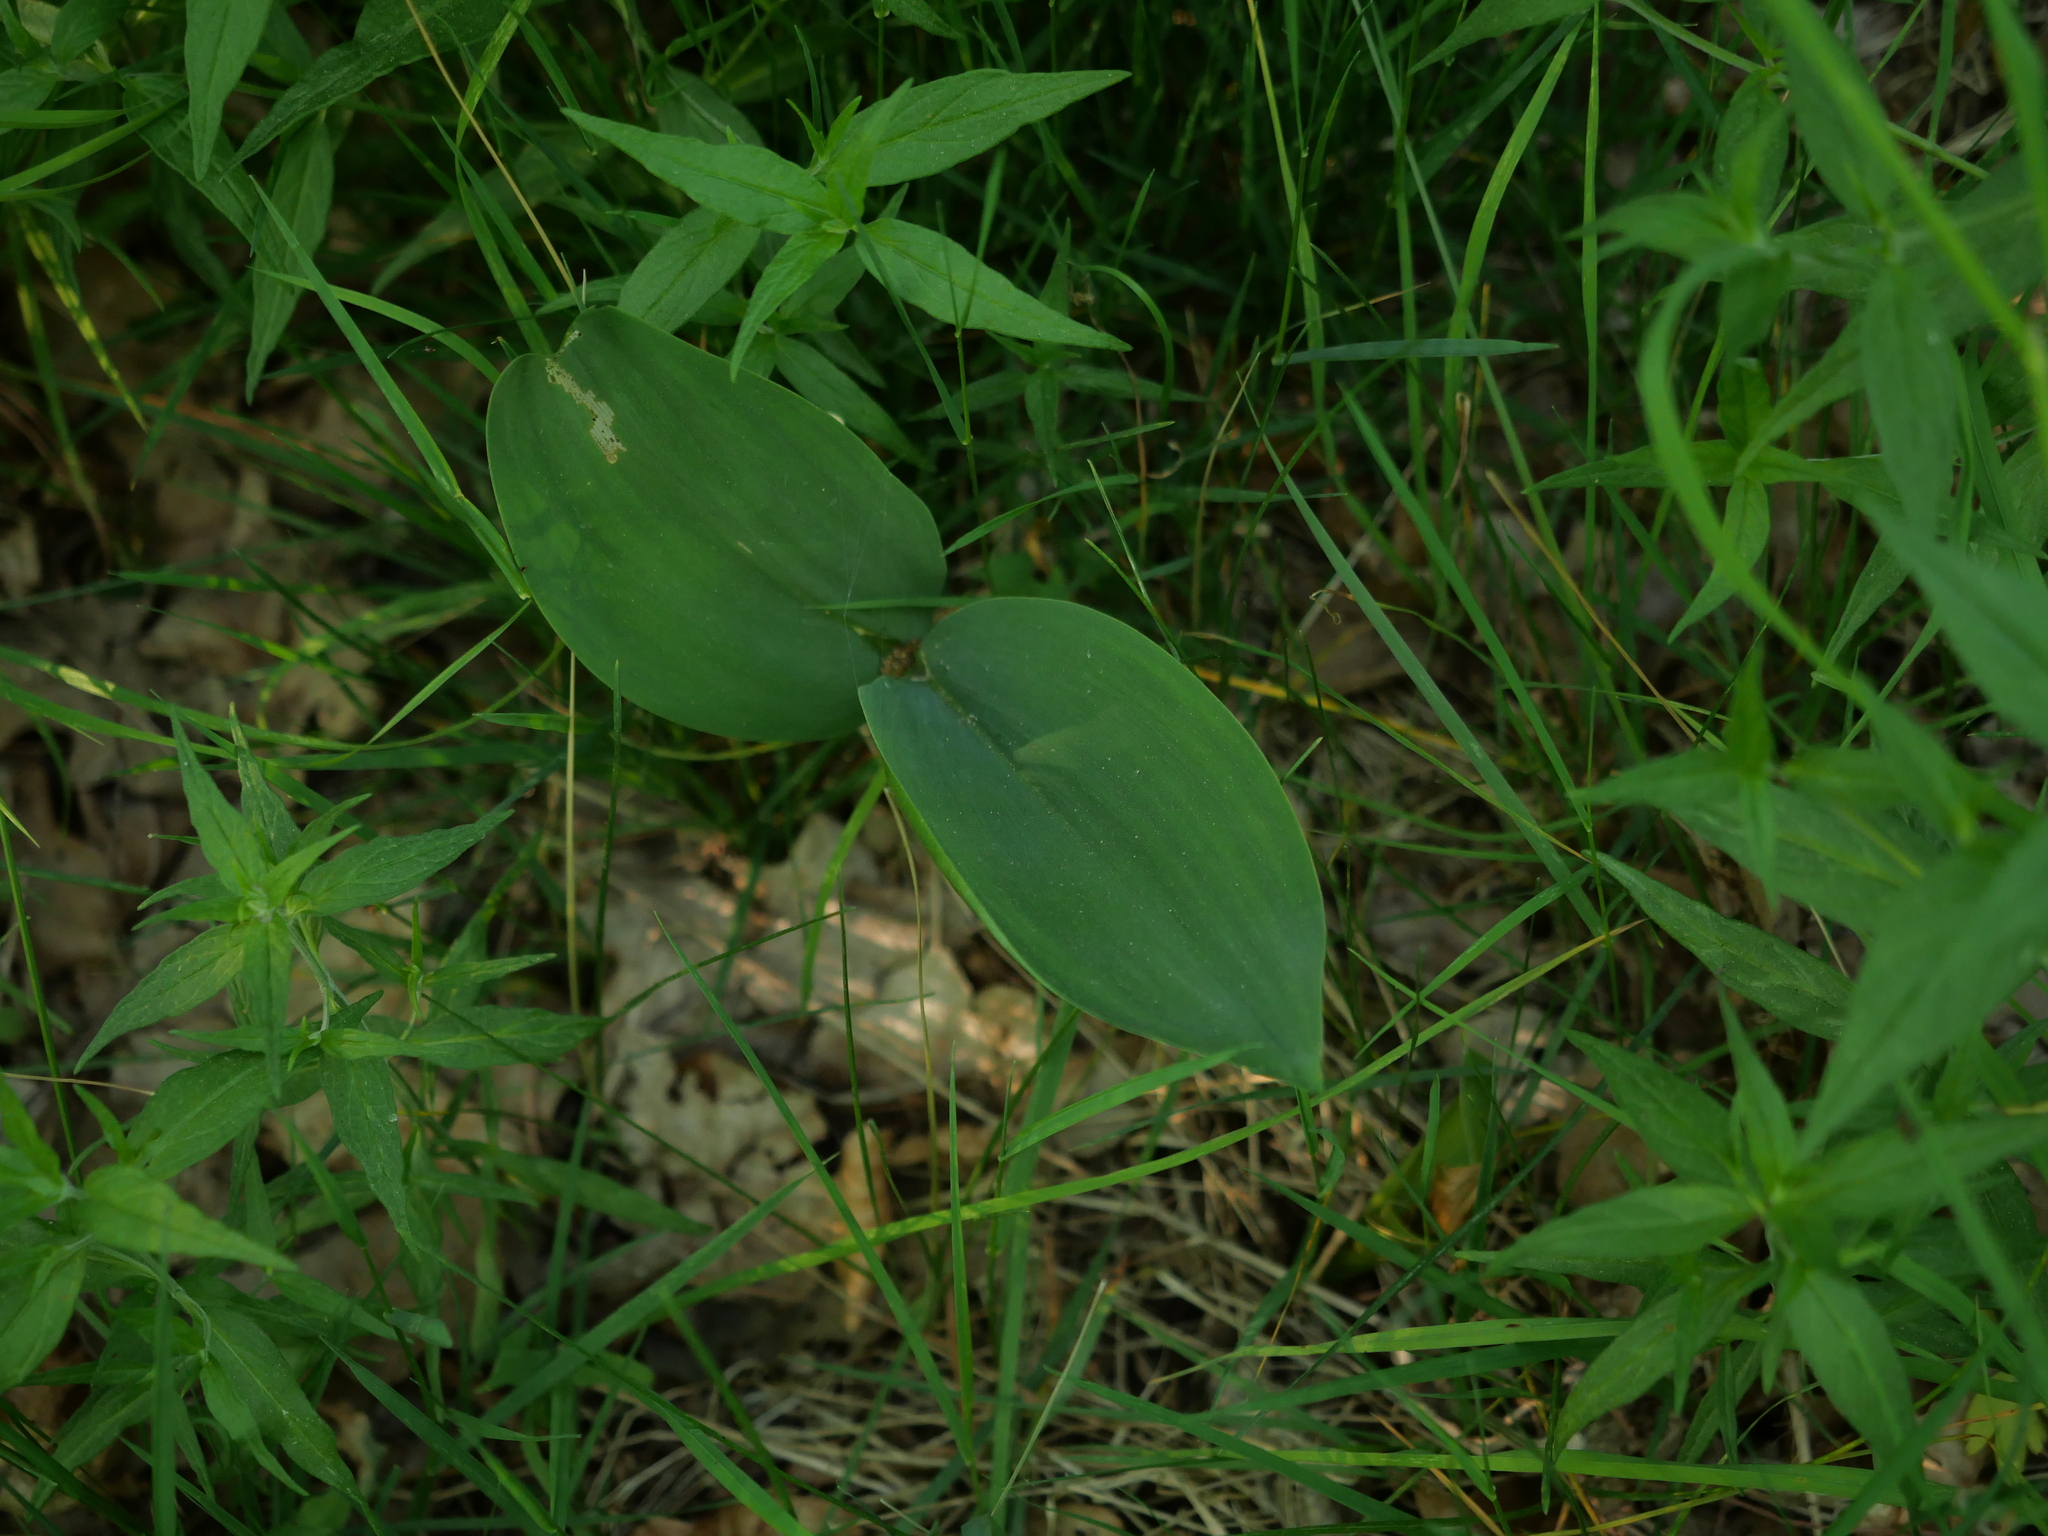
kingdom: Plantae
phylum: Tracheophyta
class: Liliopsida
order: Asparagales
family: Asparagaceae
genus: Convallaria
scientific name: Convallaria majalis
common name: Lily-of-the-valley
